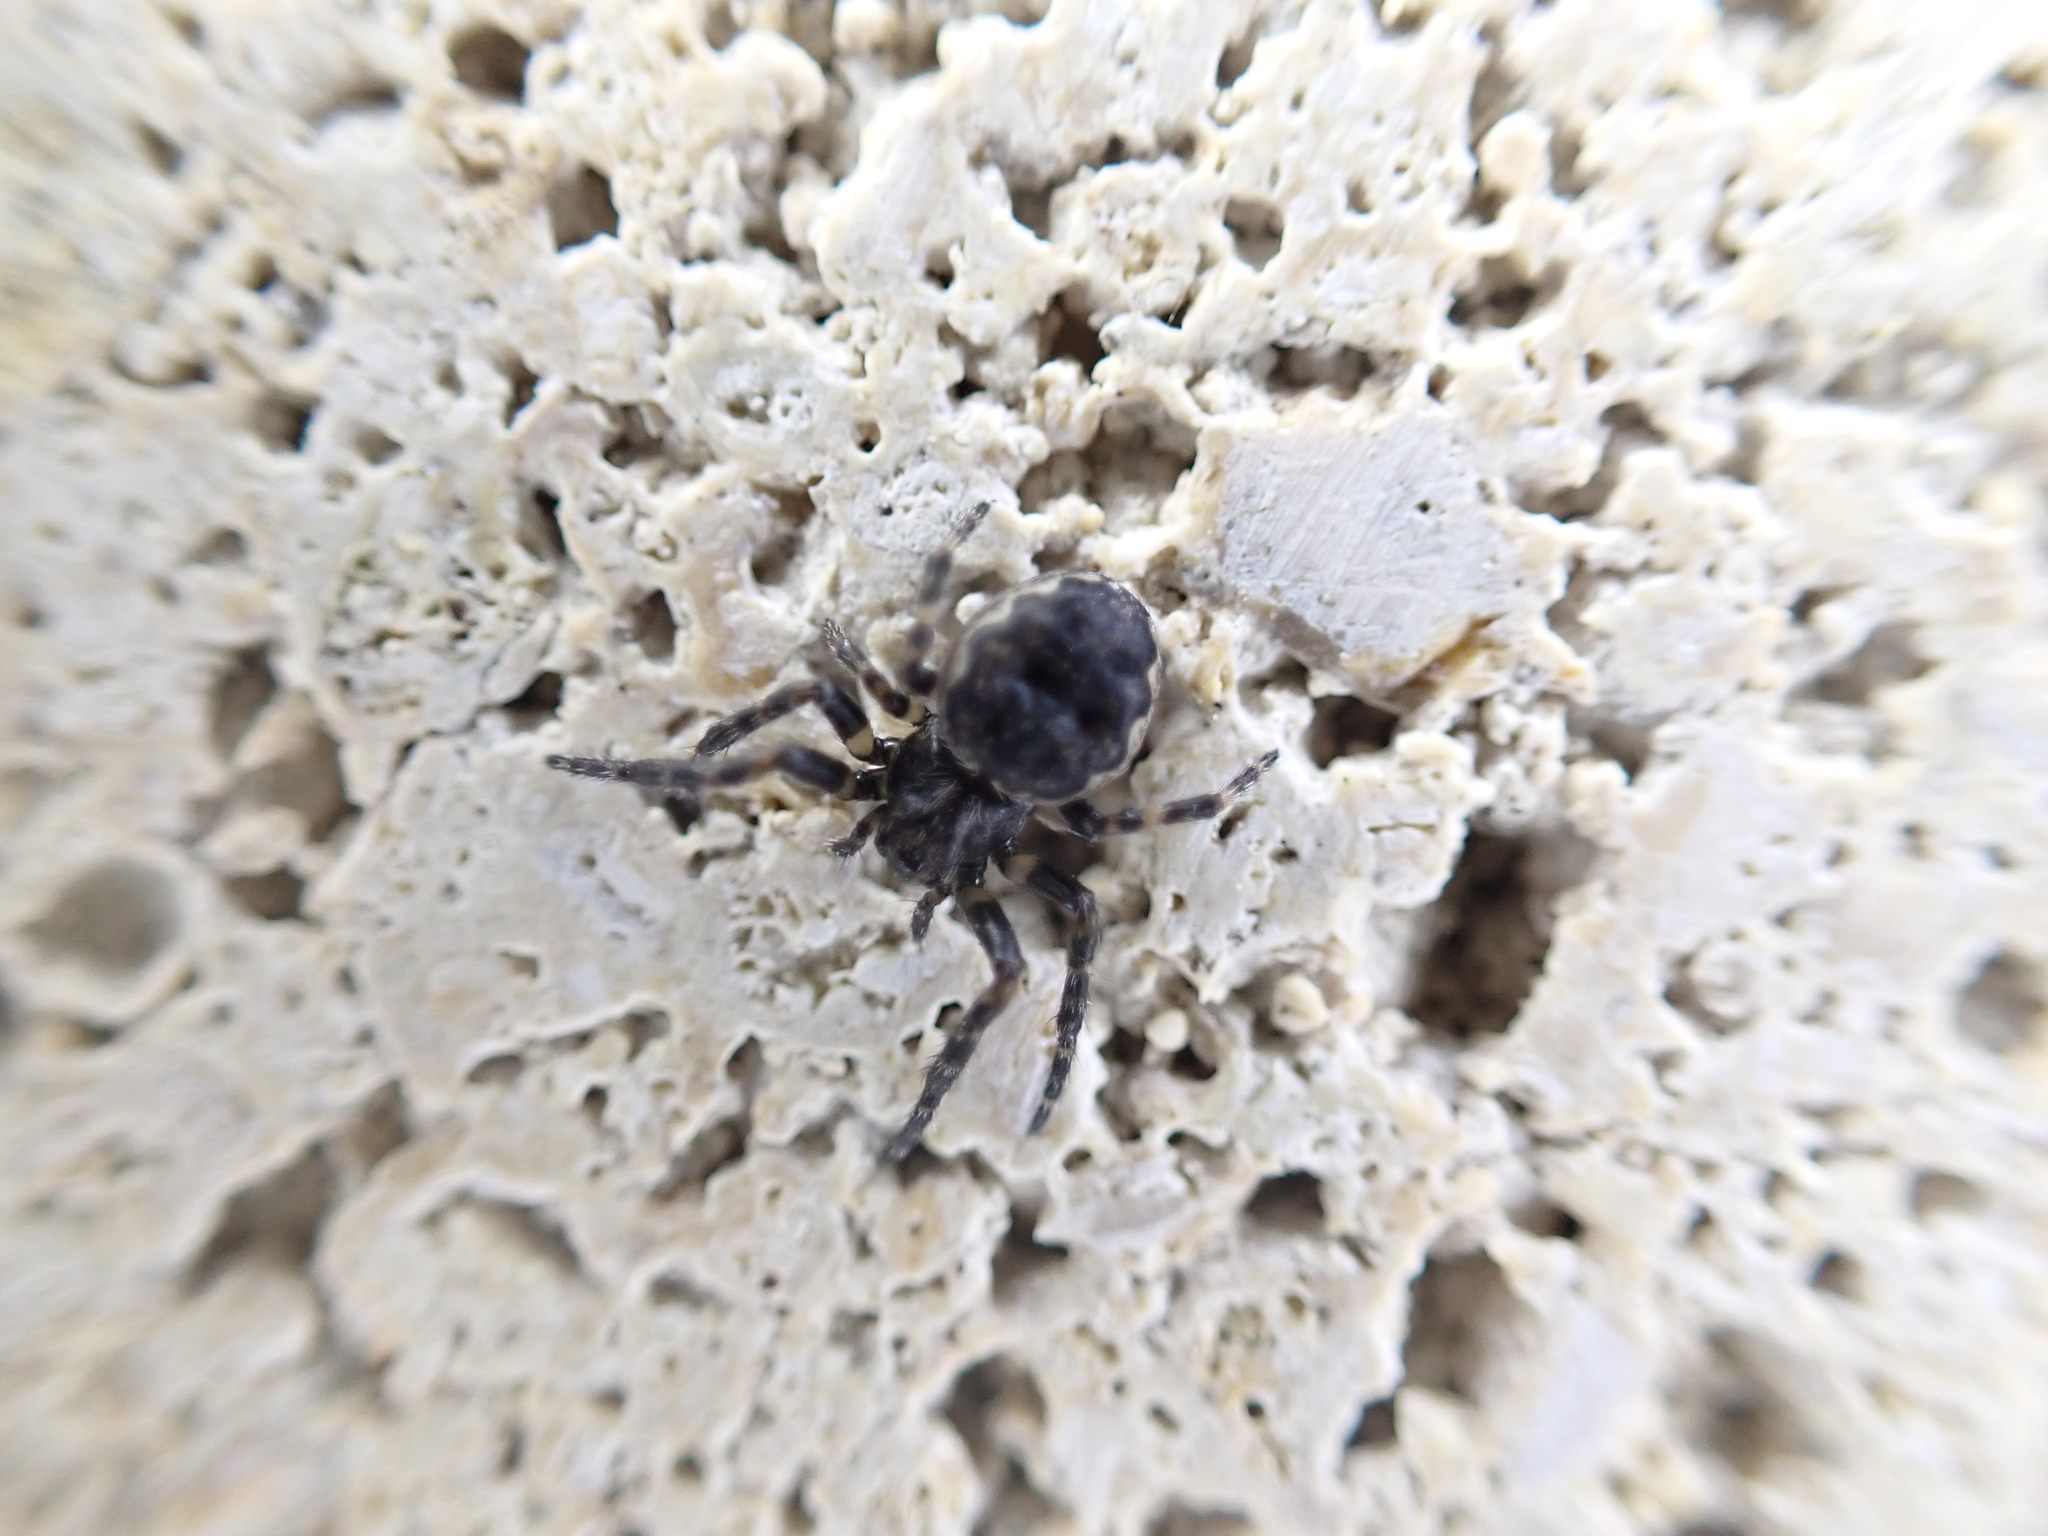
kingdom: Animalia
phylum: Arthropoda
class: Arachnida
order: Araneae
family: Araneidae
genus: Nuctenea
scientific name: Nuctenea umbratica
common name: Toad spider
